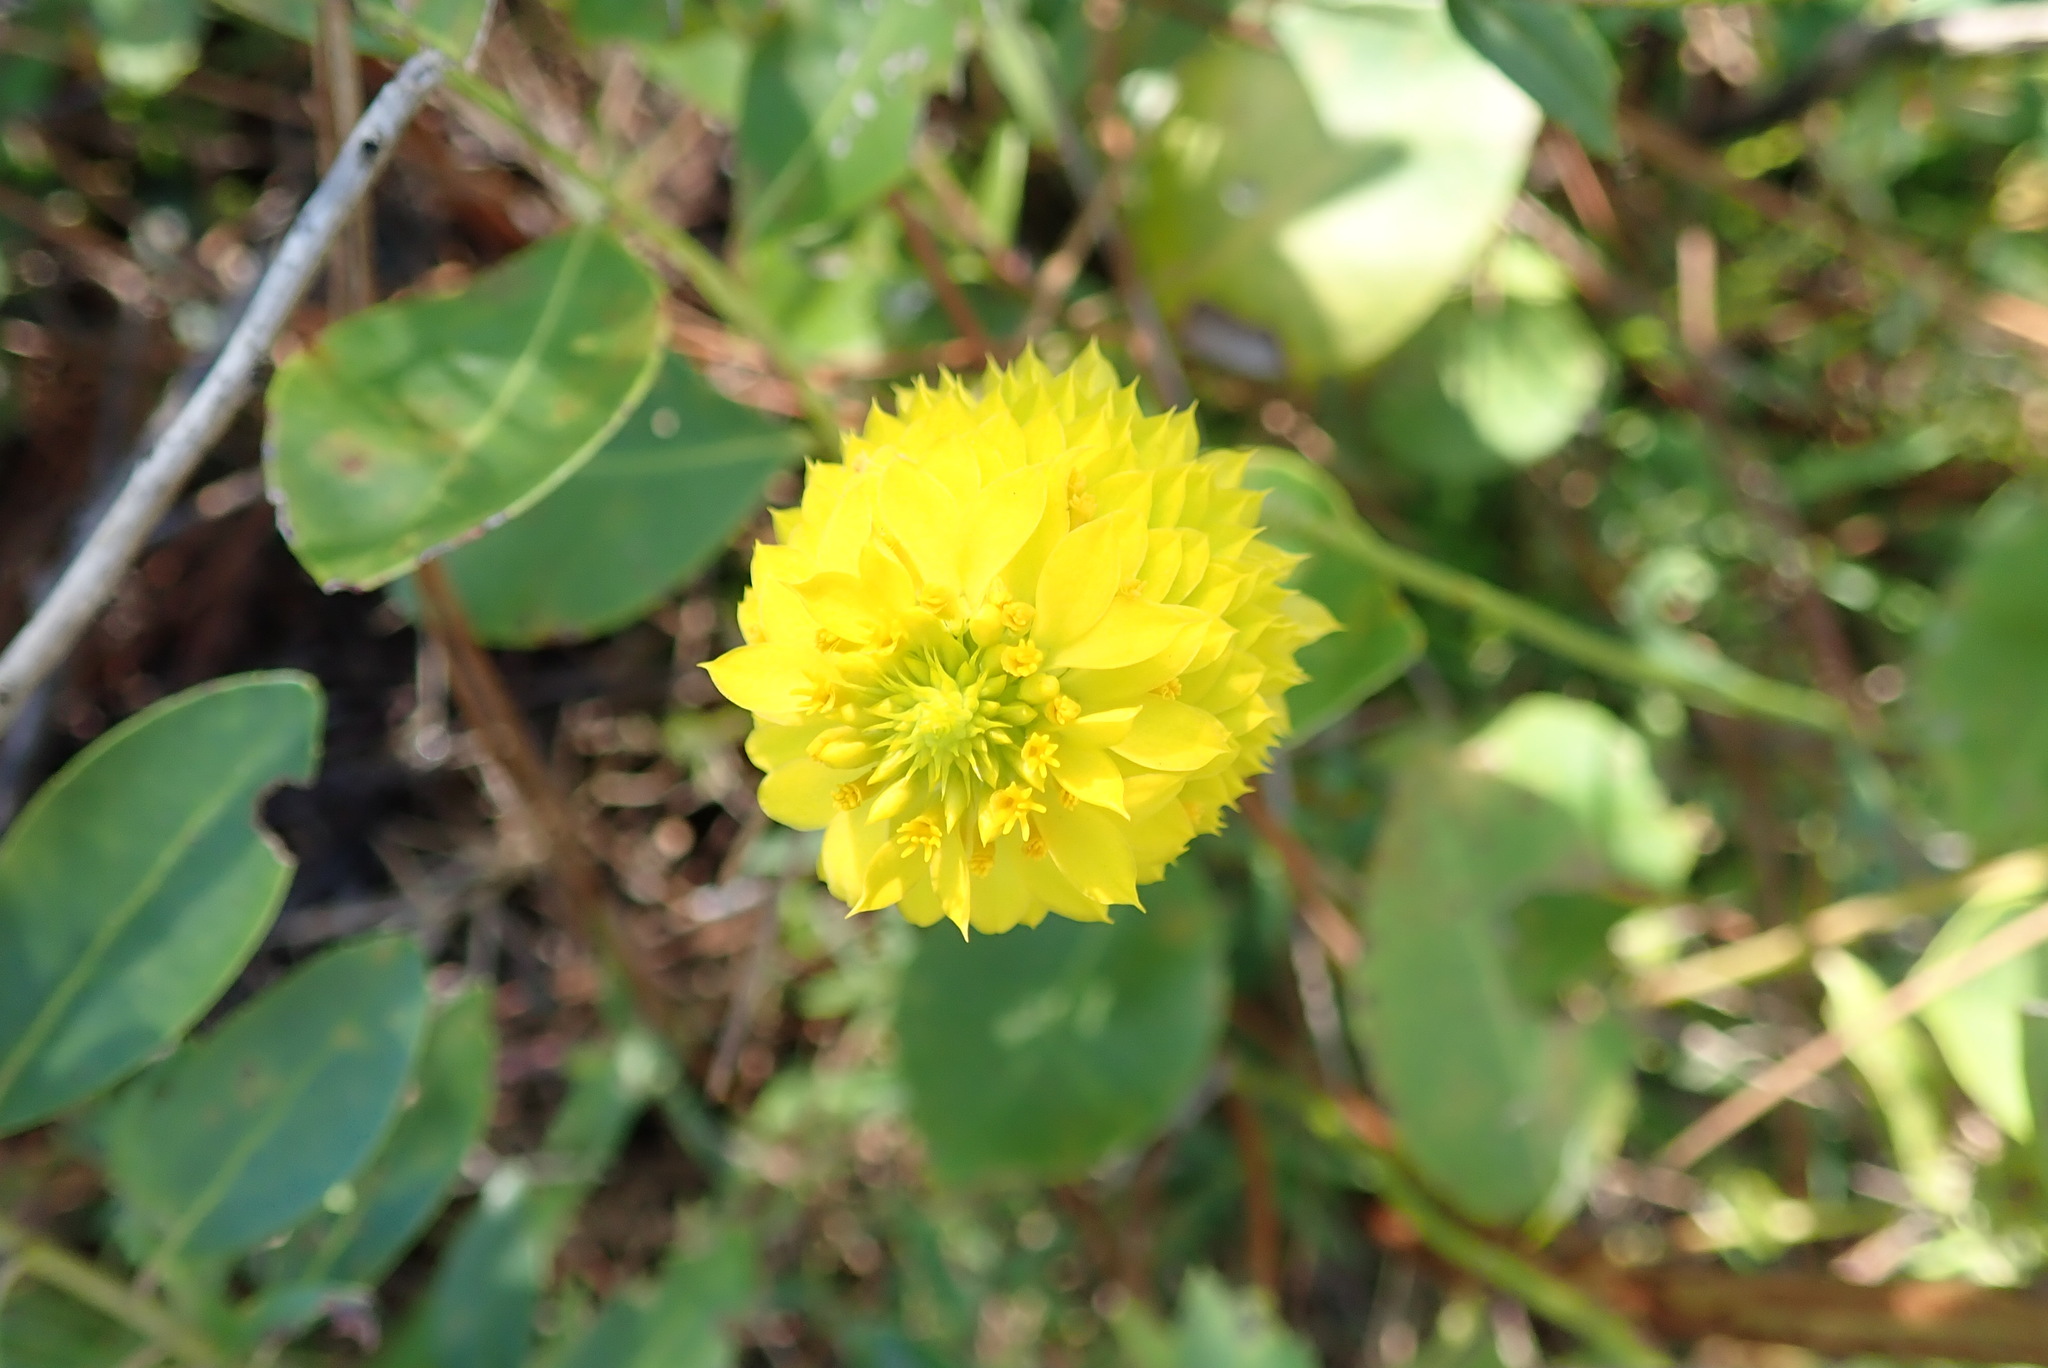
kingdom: Plantae
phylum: Tracheophyta
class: Magnoliopsida
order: Fabales
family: Polygalaceae
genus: Polygala
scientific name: Polygala rugelii
